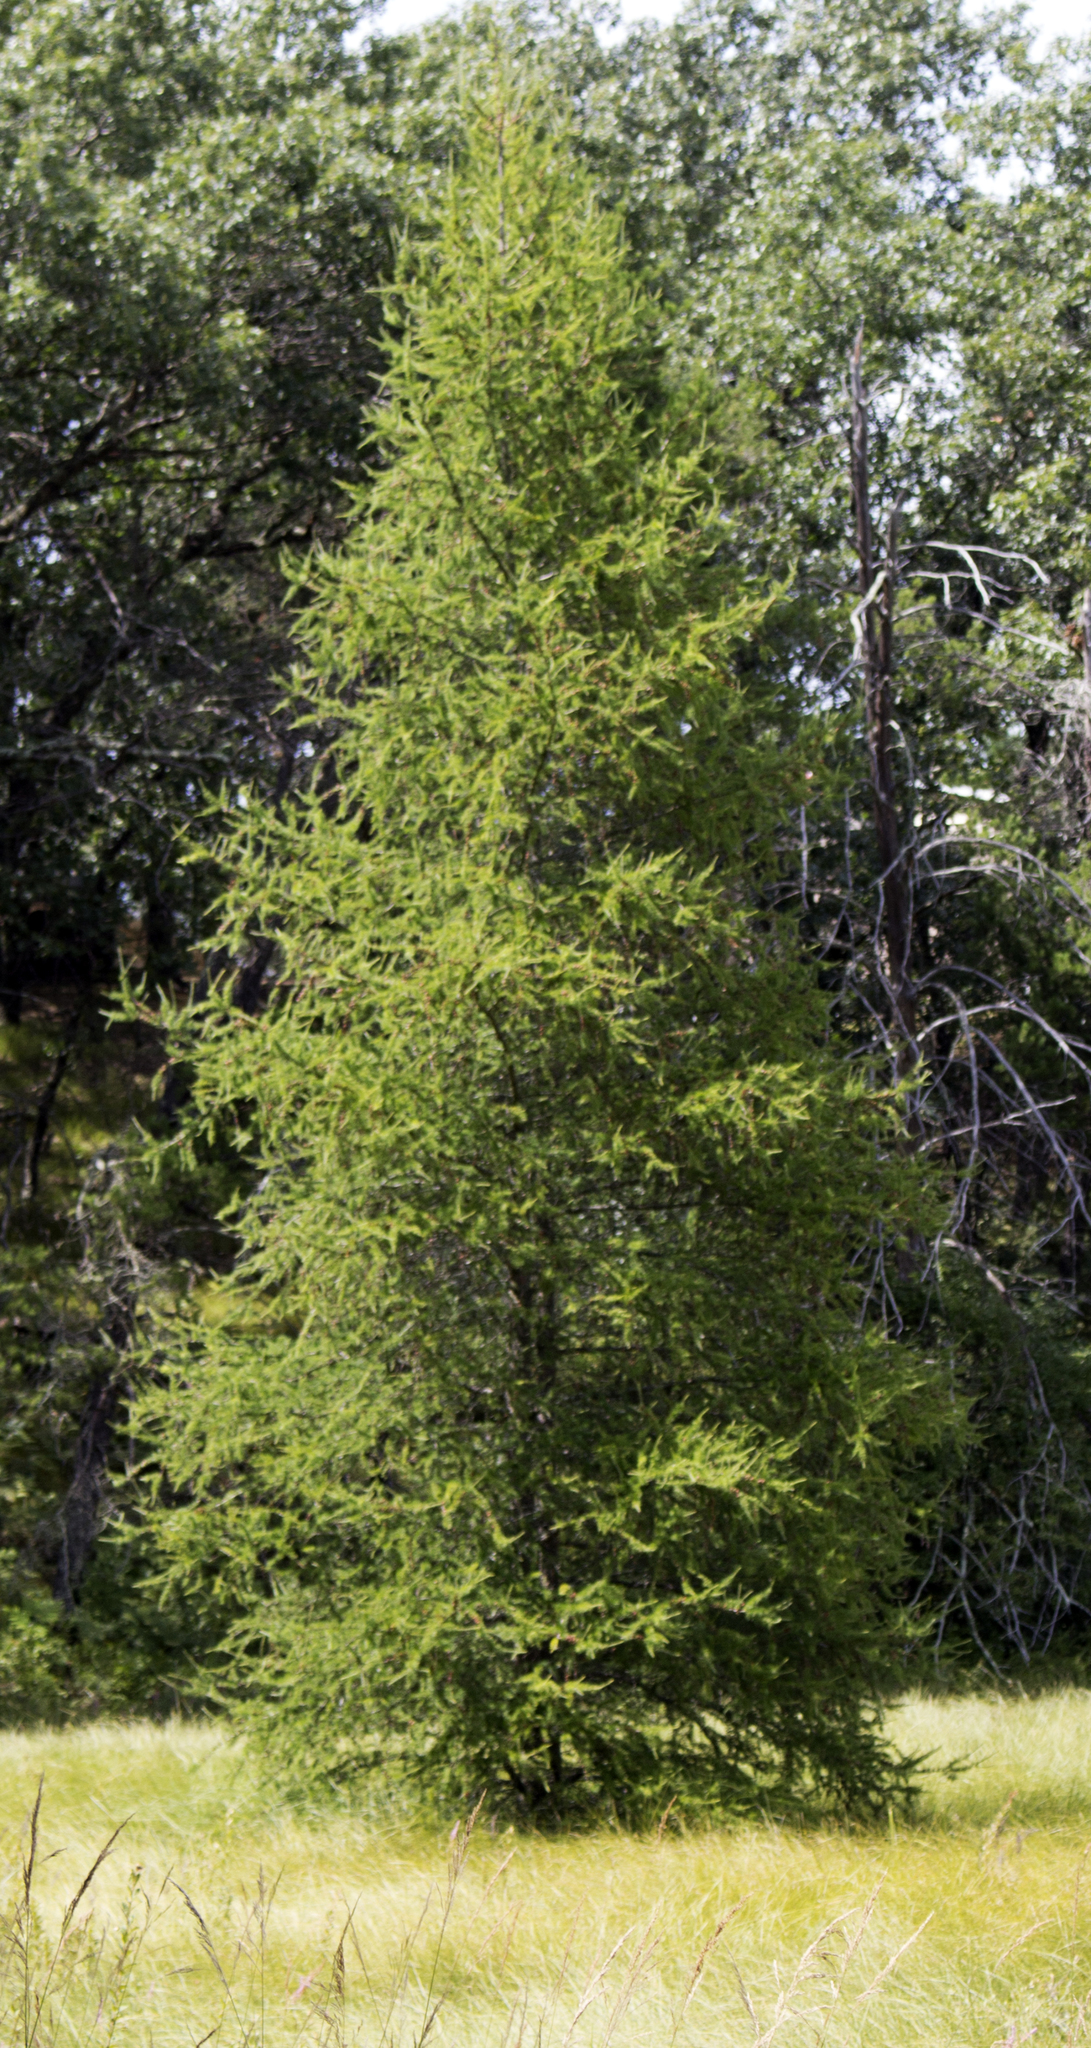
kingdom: Plantae
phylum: Tracheophyta
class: Pinopsida
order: Pinales
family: Pinaceae
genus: Larix
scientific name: Larix laricina
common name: American larch
